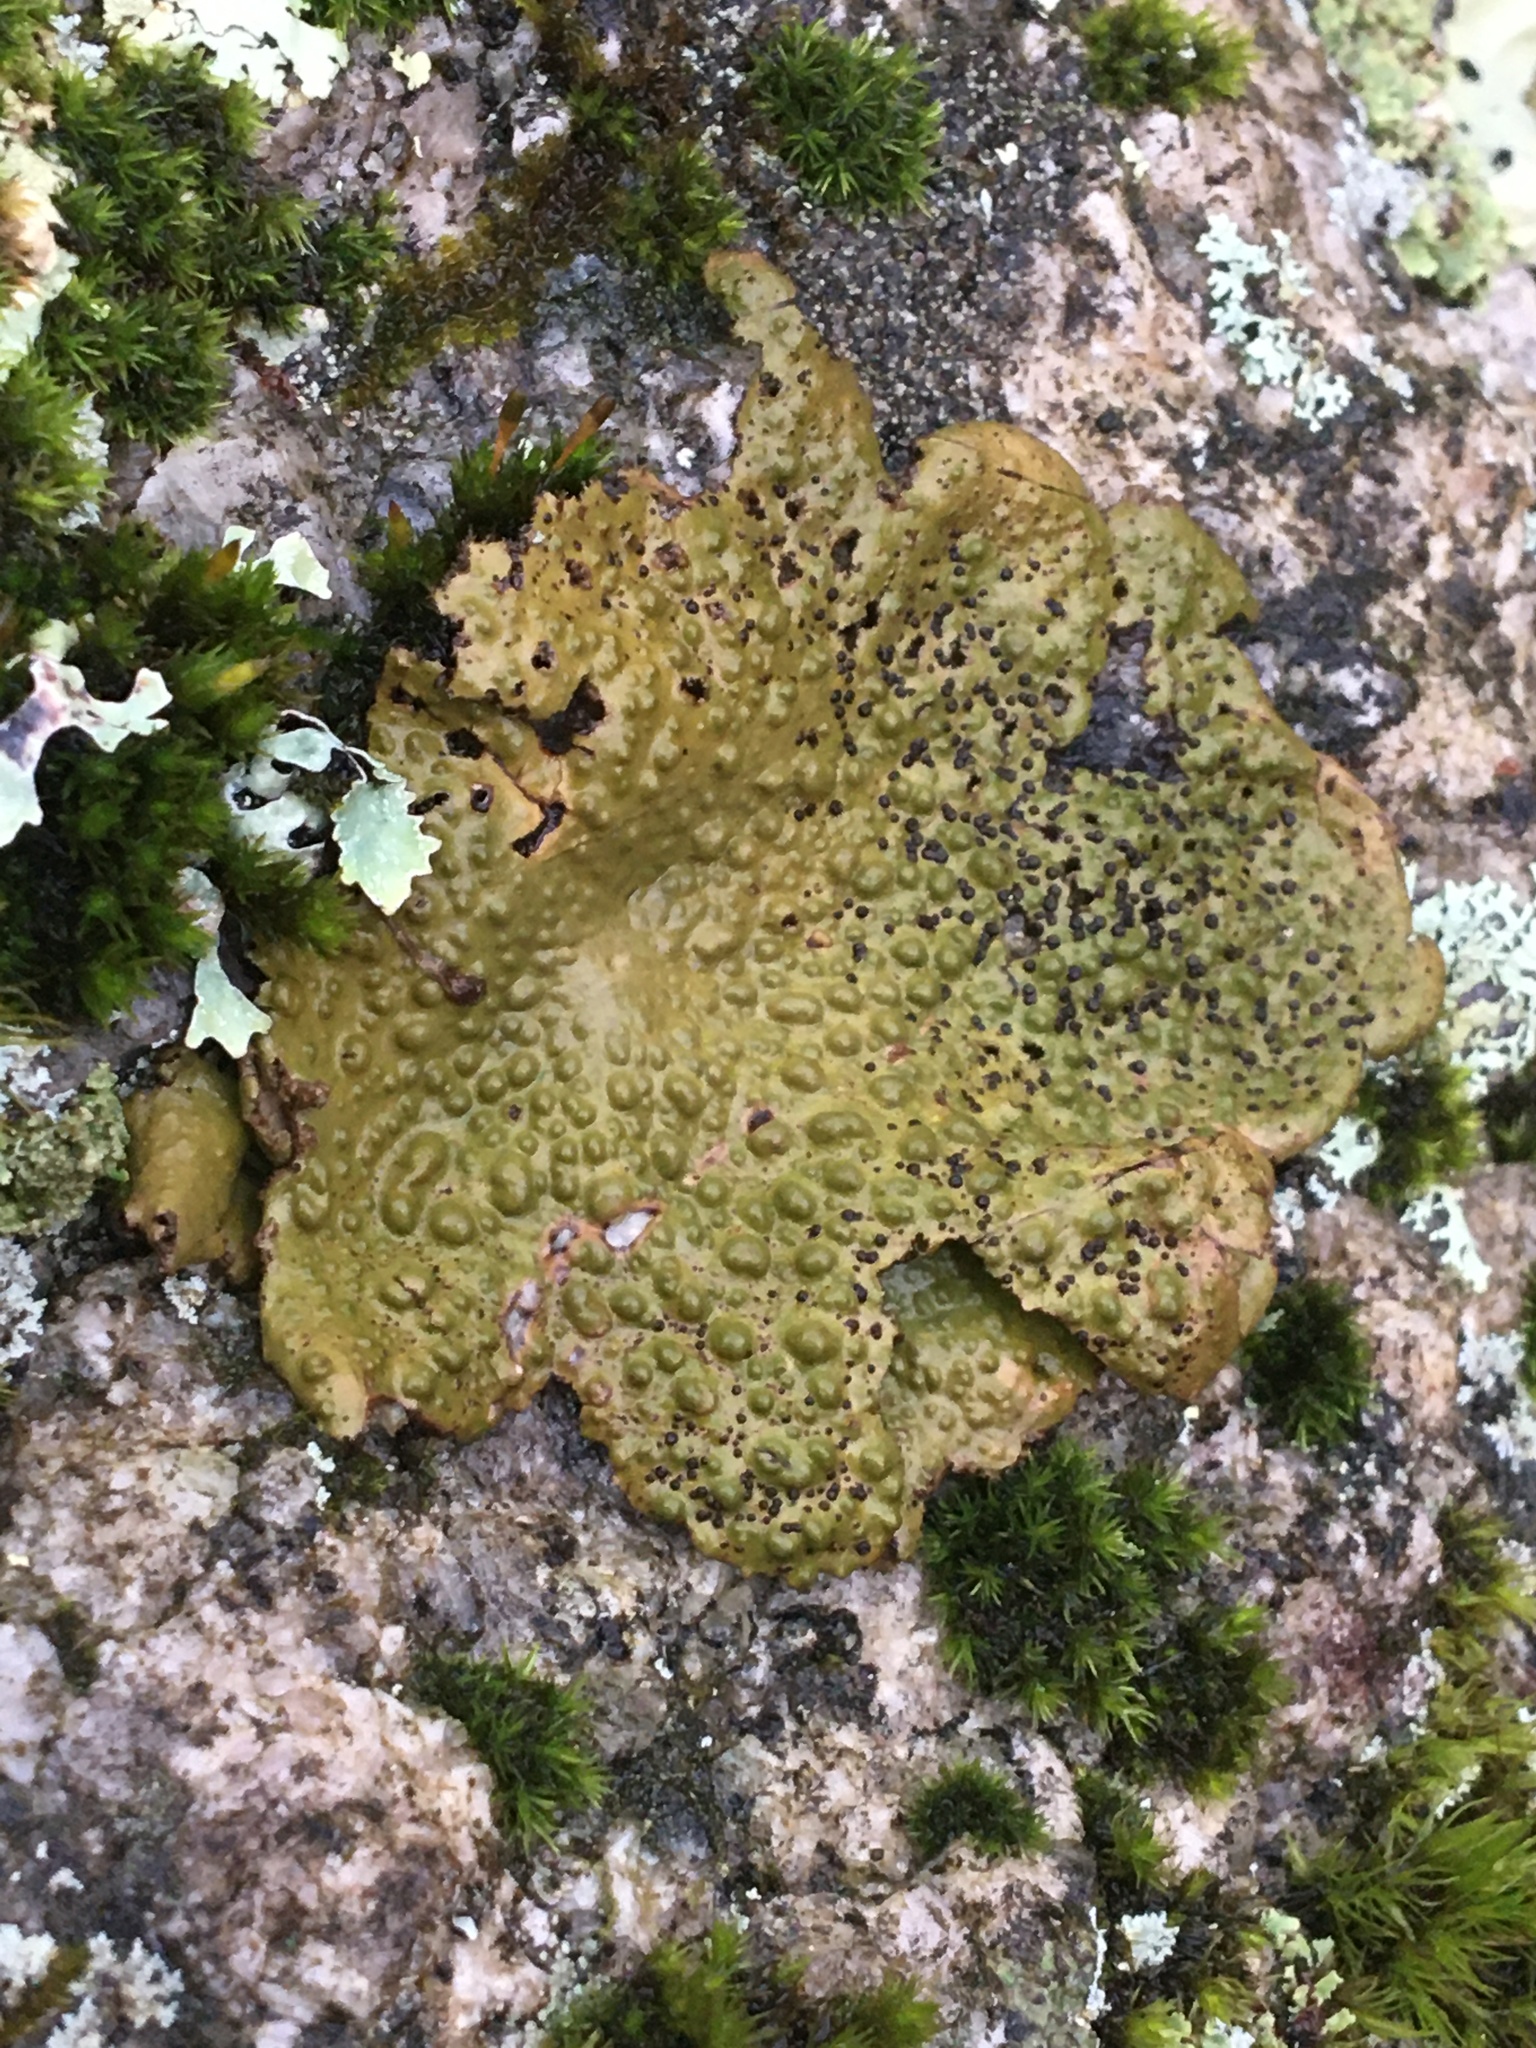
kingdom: Fungi
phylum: Ascomycota
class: Lecanoromycetes
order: Umbilicariales
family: Umbilicariaceae
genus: Lasallia
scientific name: Lasallia pensylvanica
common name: Blackened toadskin lichen
